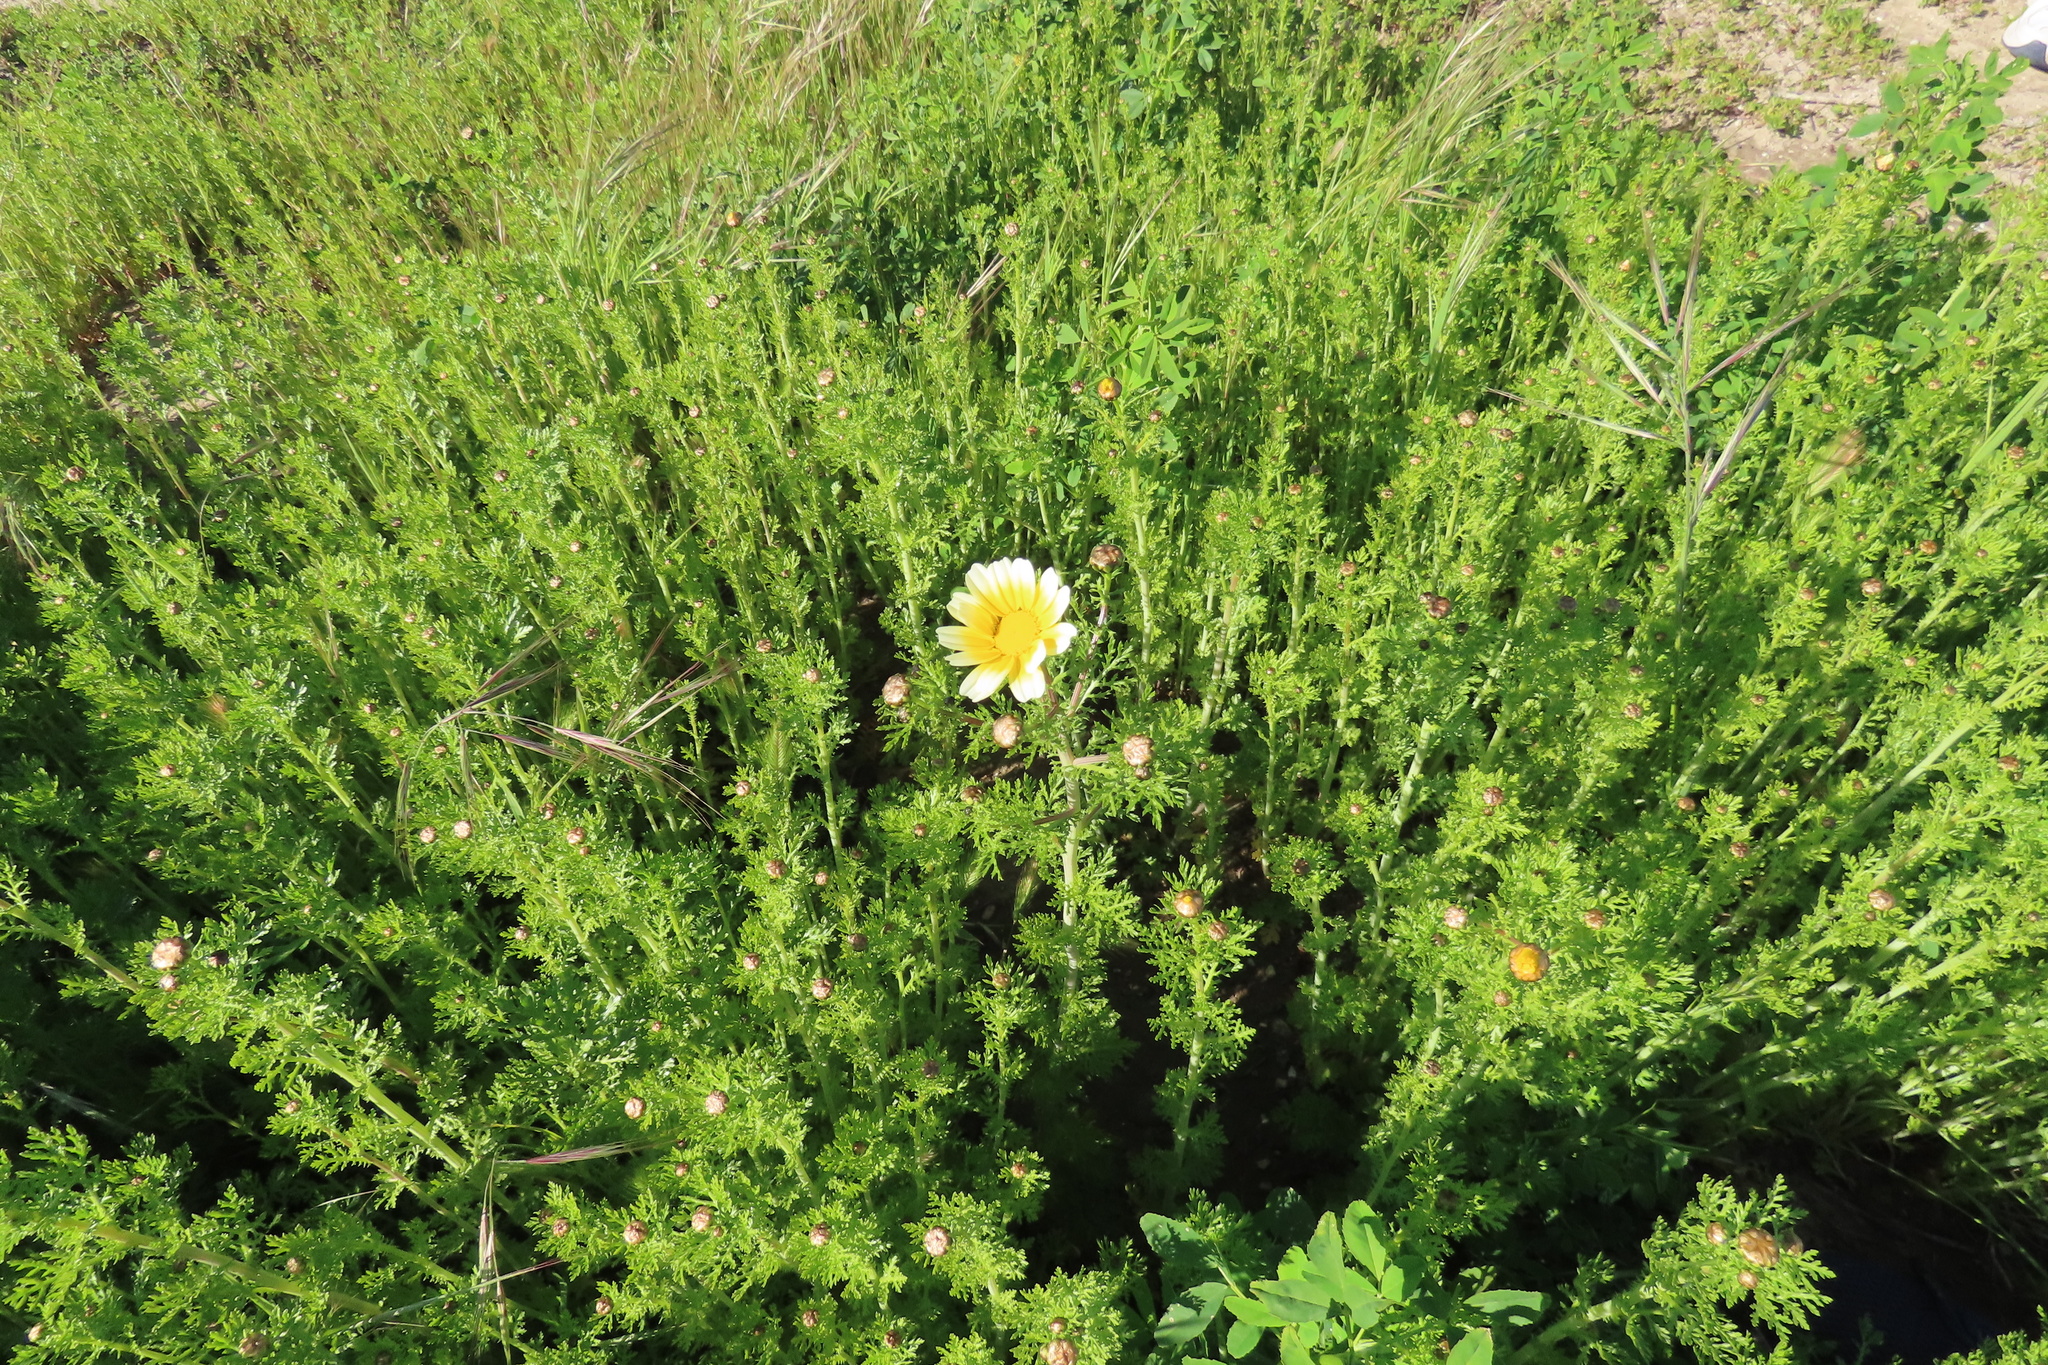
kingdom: Plantae
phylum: Tracheophyta
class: Magnoliopsida
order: Asterales
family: Asteraceae
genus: Glebionis
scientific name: Glebionis coronaria
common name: Crowndaisy
